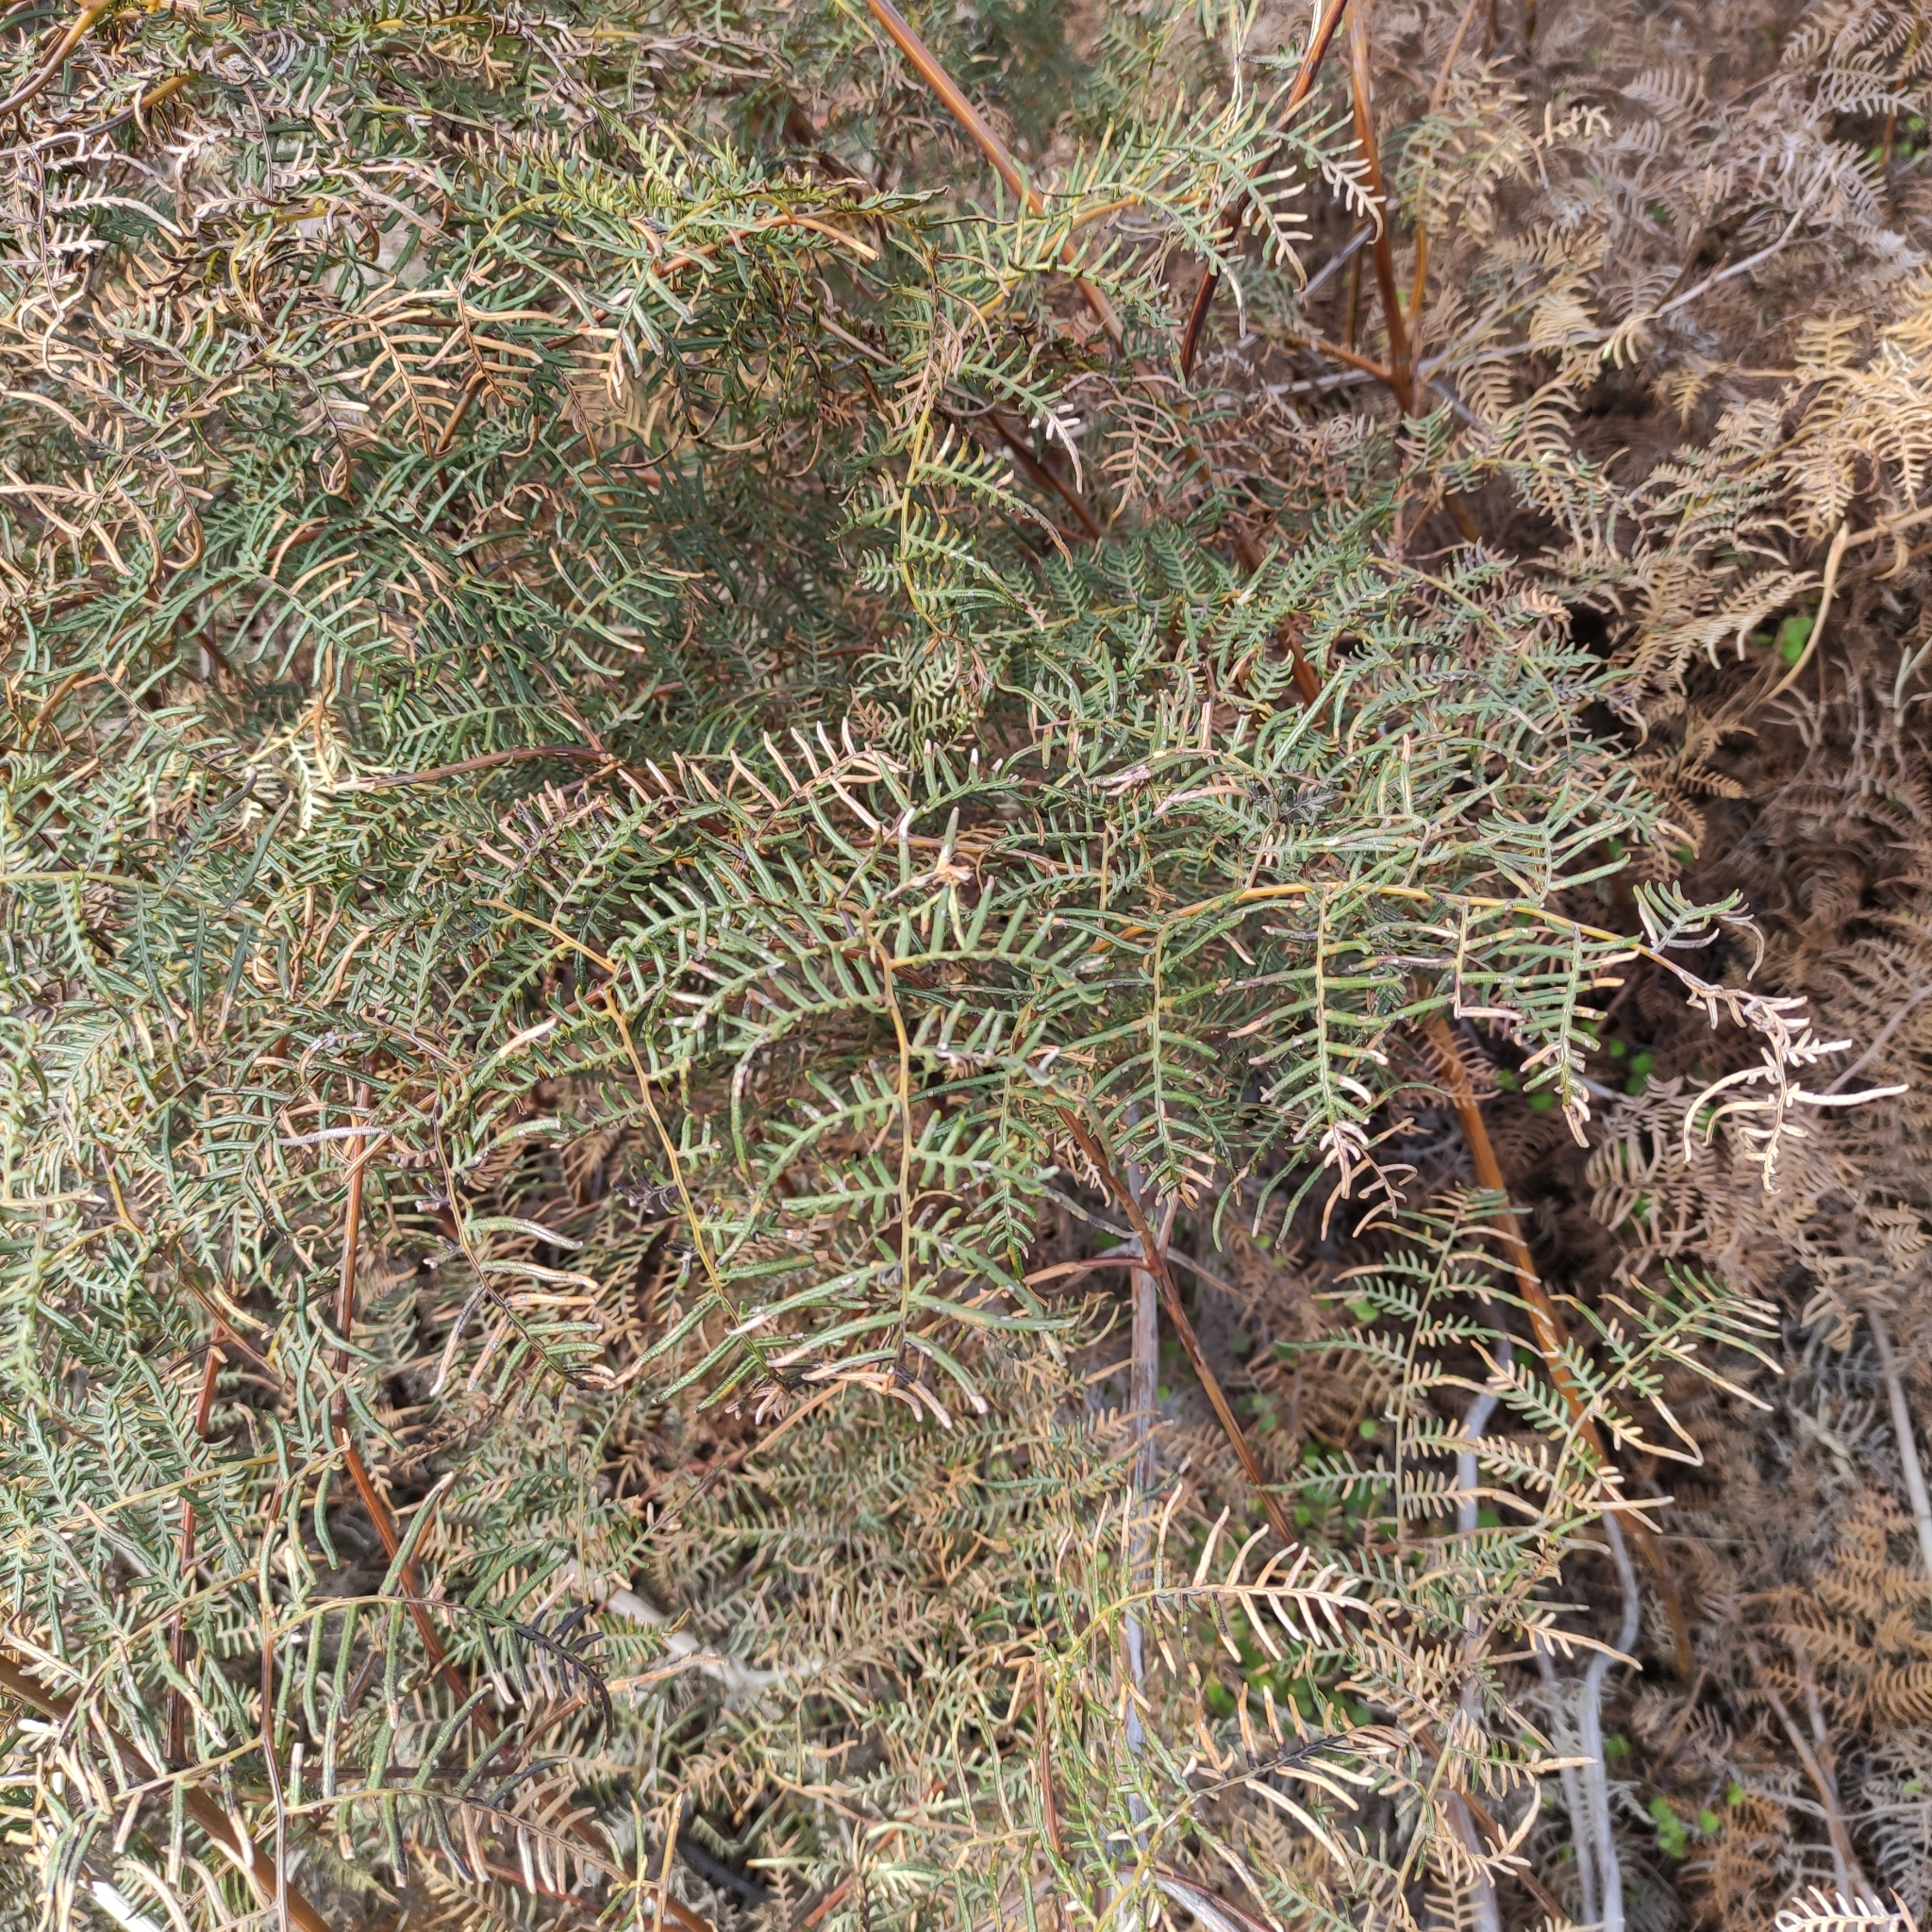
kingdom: Plantae
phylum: Tracheophyta
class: Polypodiopsida
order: Polypodiales
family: Dennstaedtiaceae
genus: Pteridium
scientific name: Pteridium esculentum
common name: Bracken fern
